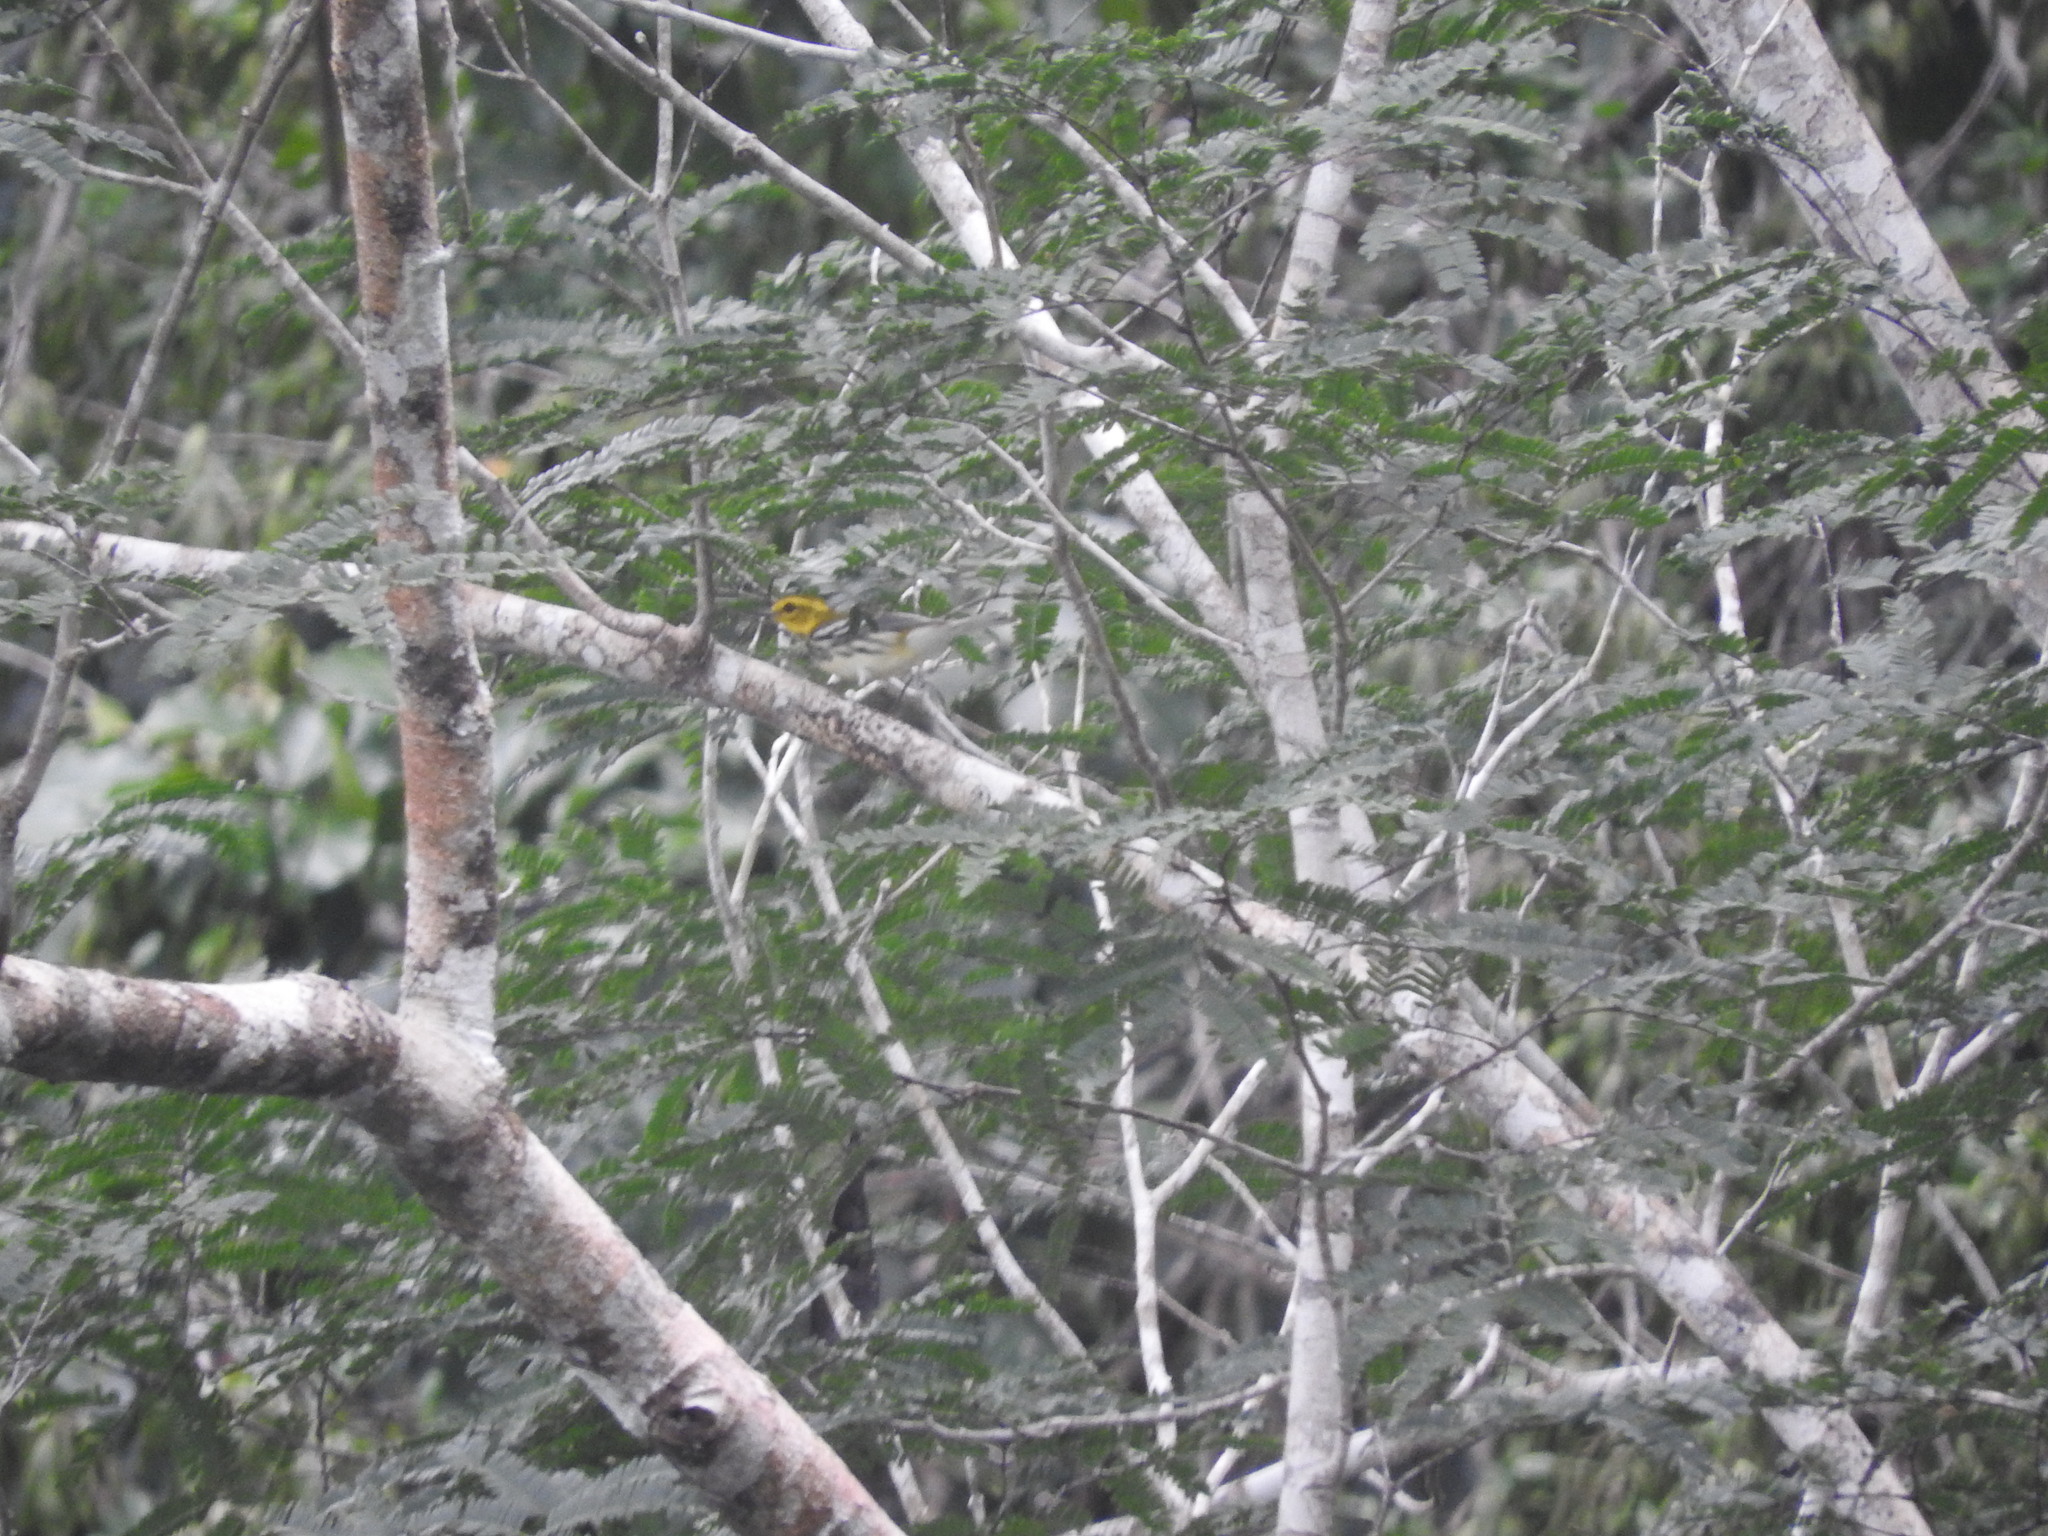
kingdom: Animalia
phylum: Chordata
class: Aves
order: Passeriformes
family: Parulidae
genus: Setophaga
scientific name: Setophaga virens
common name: Black-throated green warbler
